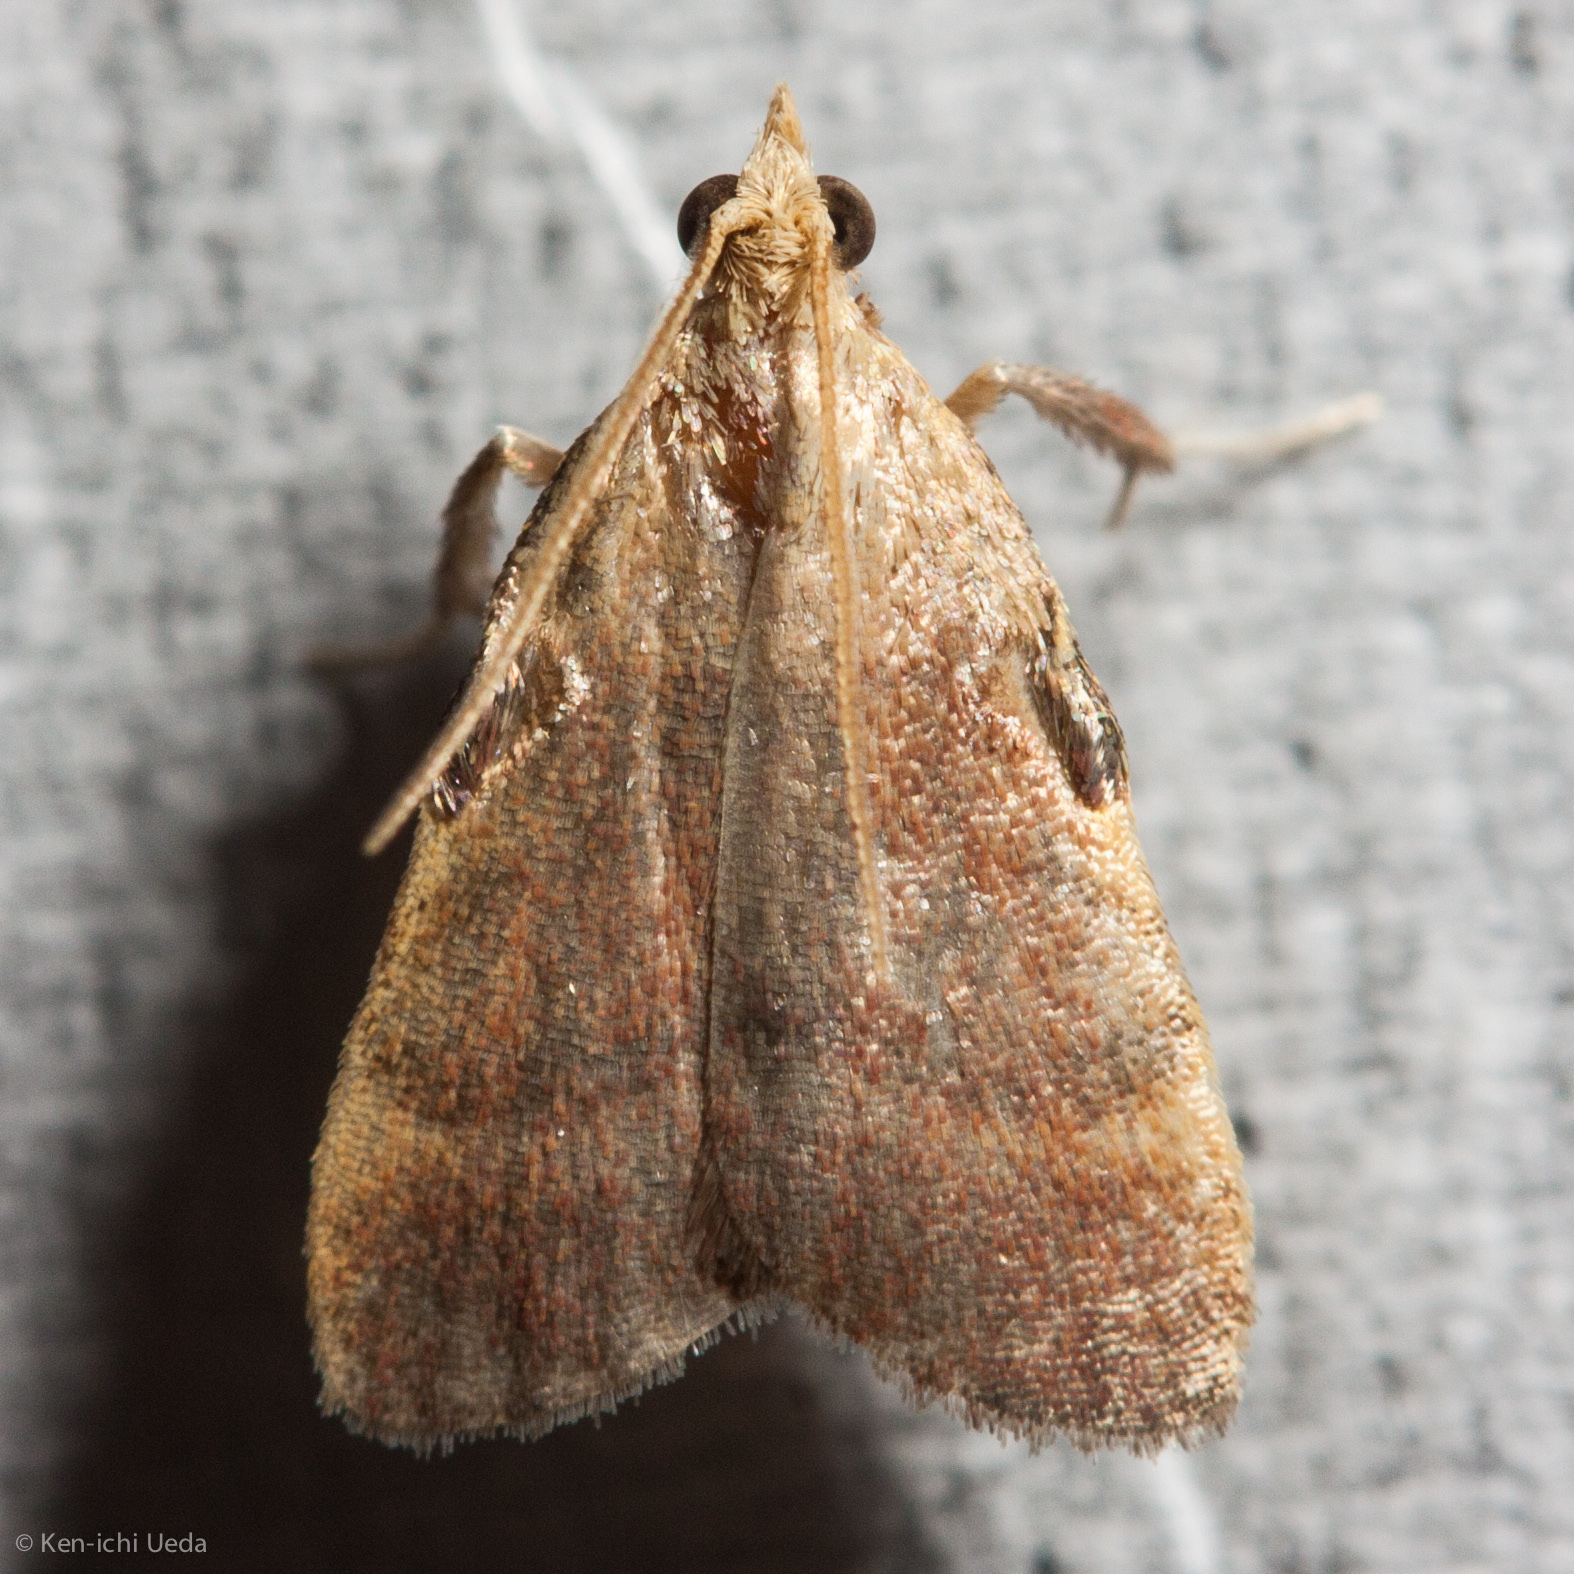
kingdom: Animalia
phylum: Arthropoda
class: Insecta
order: Lepidoptera
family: Pyralidae
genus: Condylolomia
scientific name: Condylolomia participialis
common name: Drab condylolomia moth
